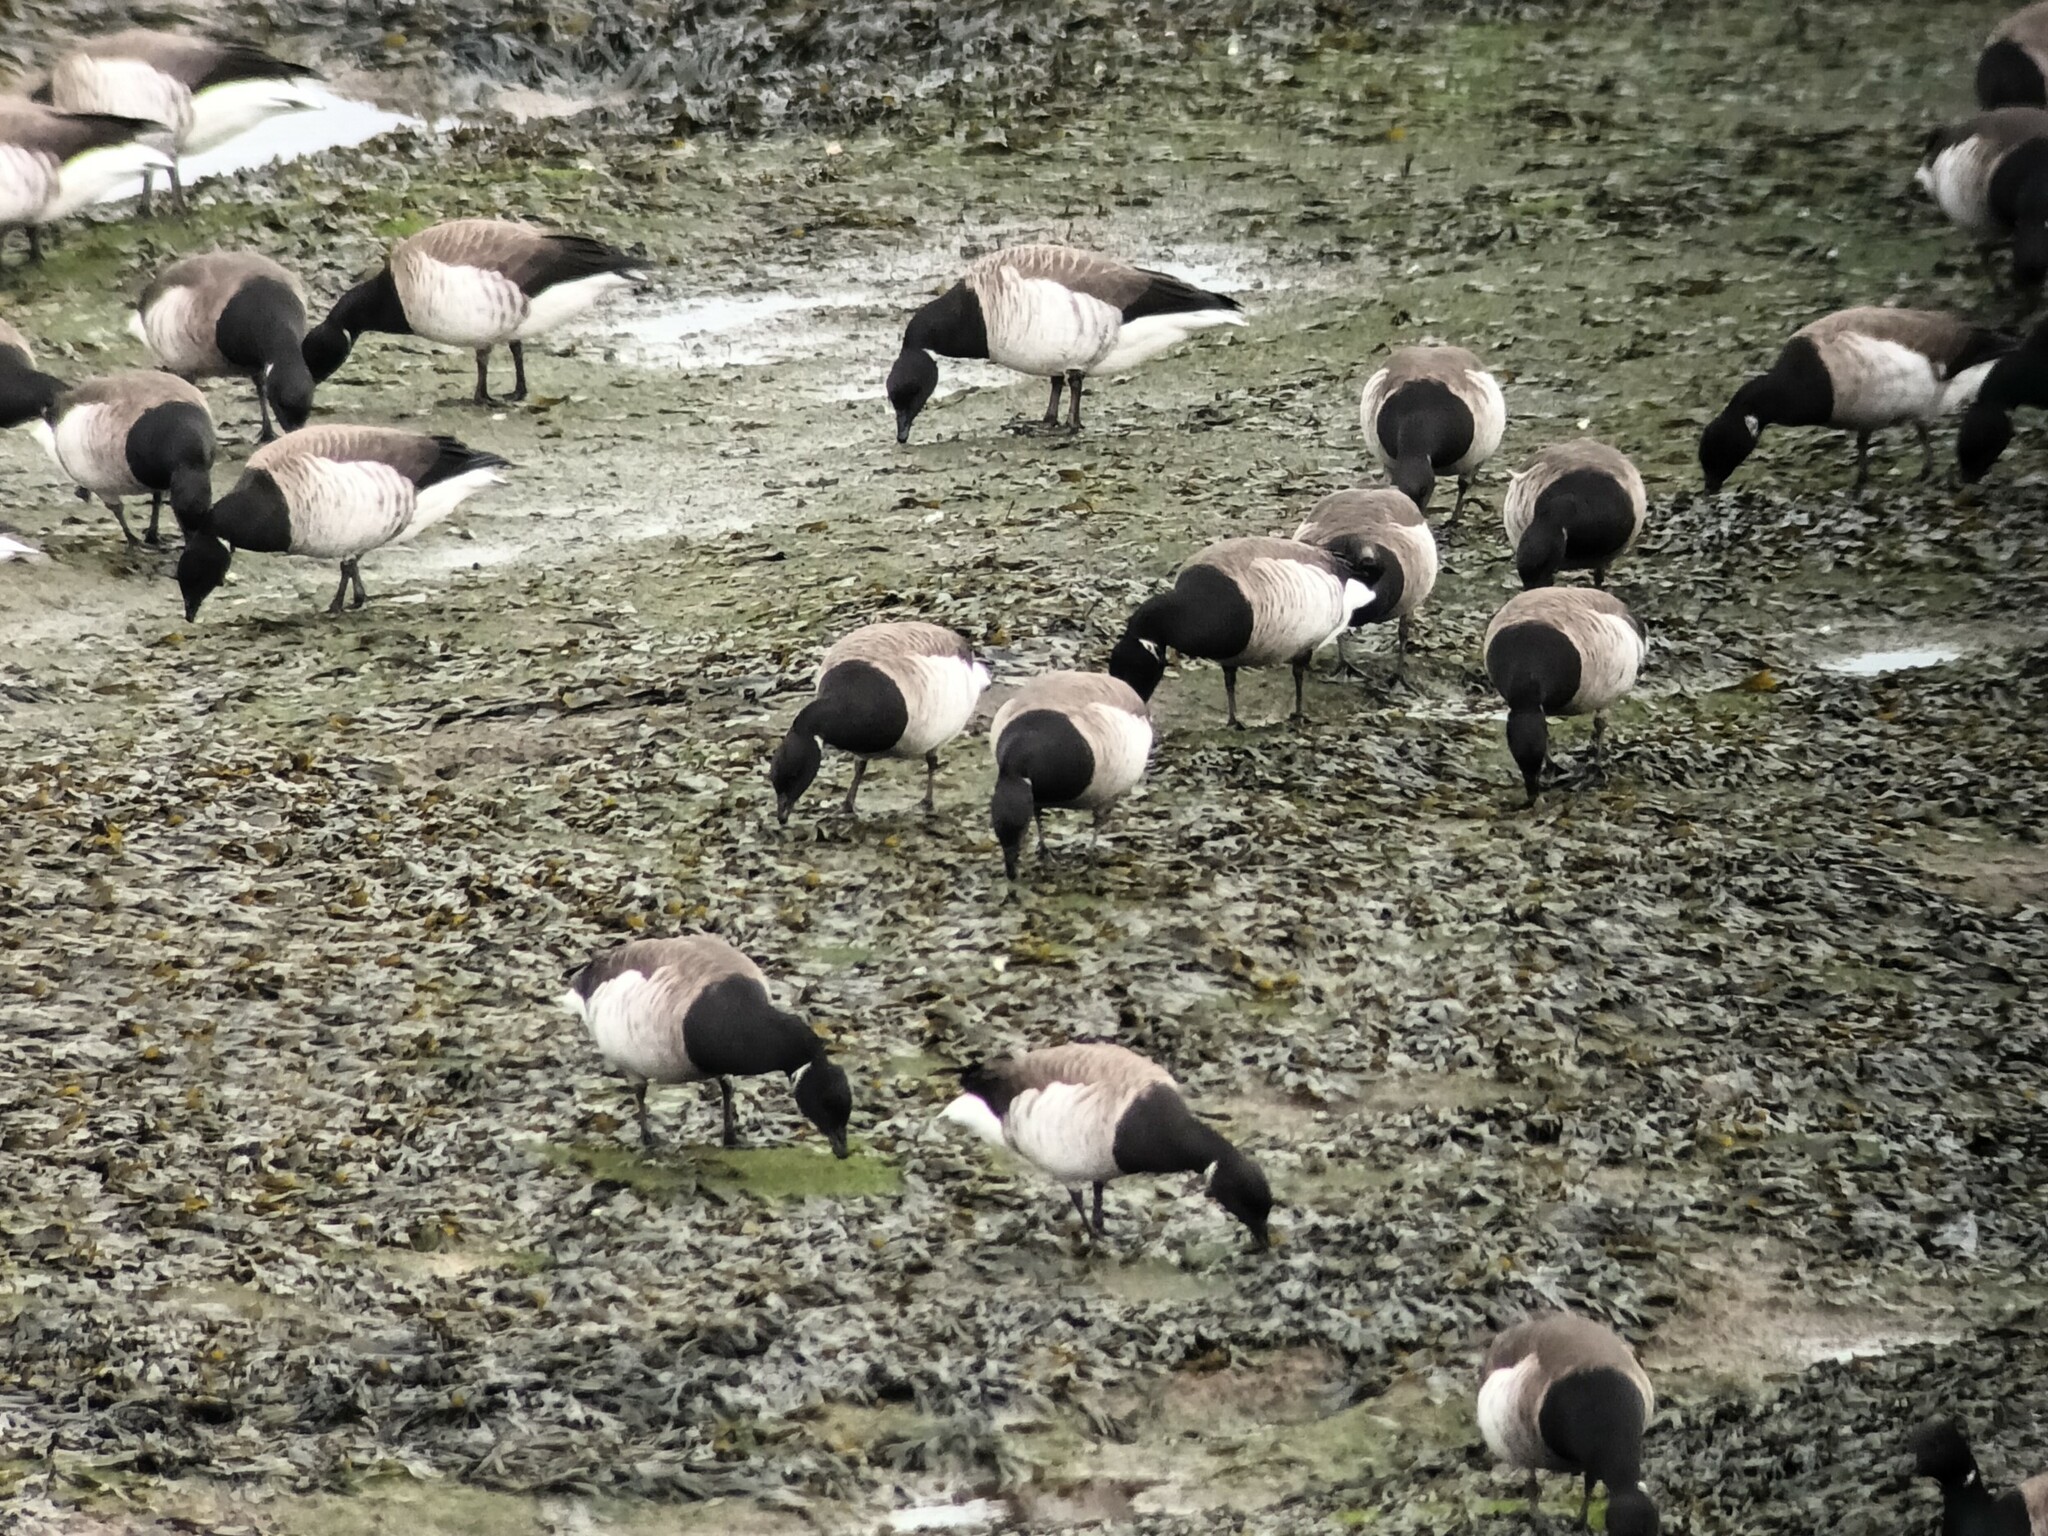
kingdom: Animalia
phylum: Chordata
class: Aves
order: Anseriformes
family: Anatidae
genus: Branta
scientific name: Branta bernicla
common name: Brant goose
